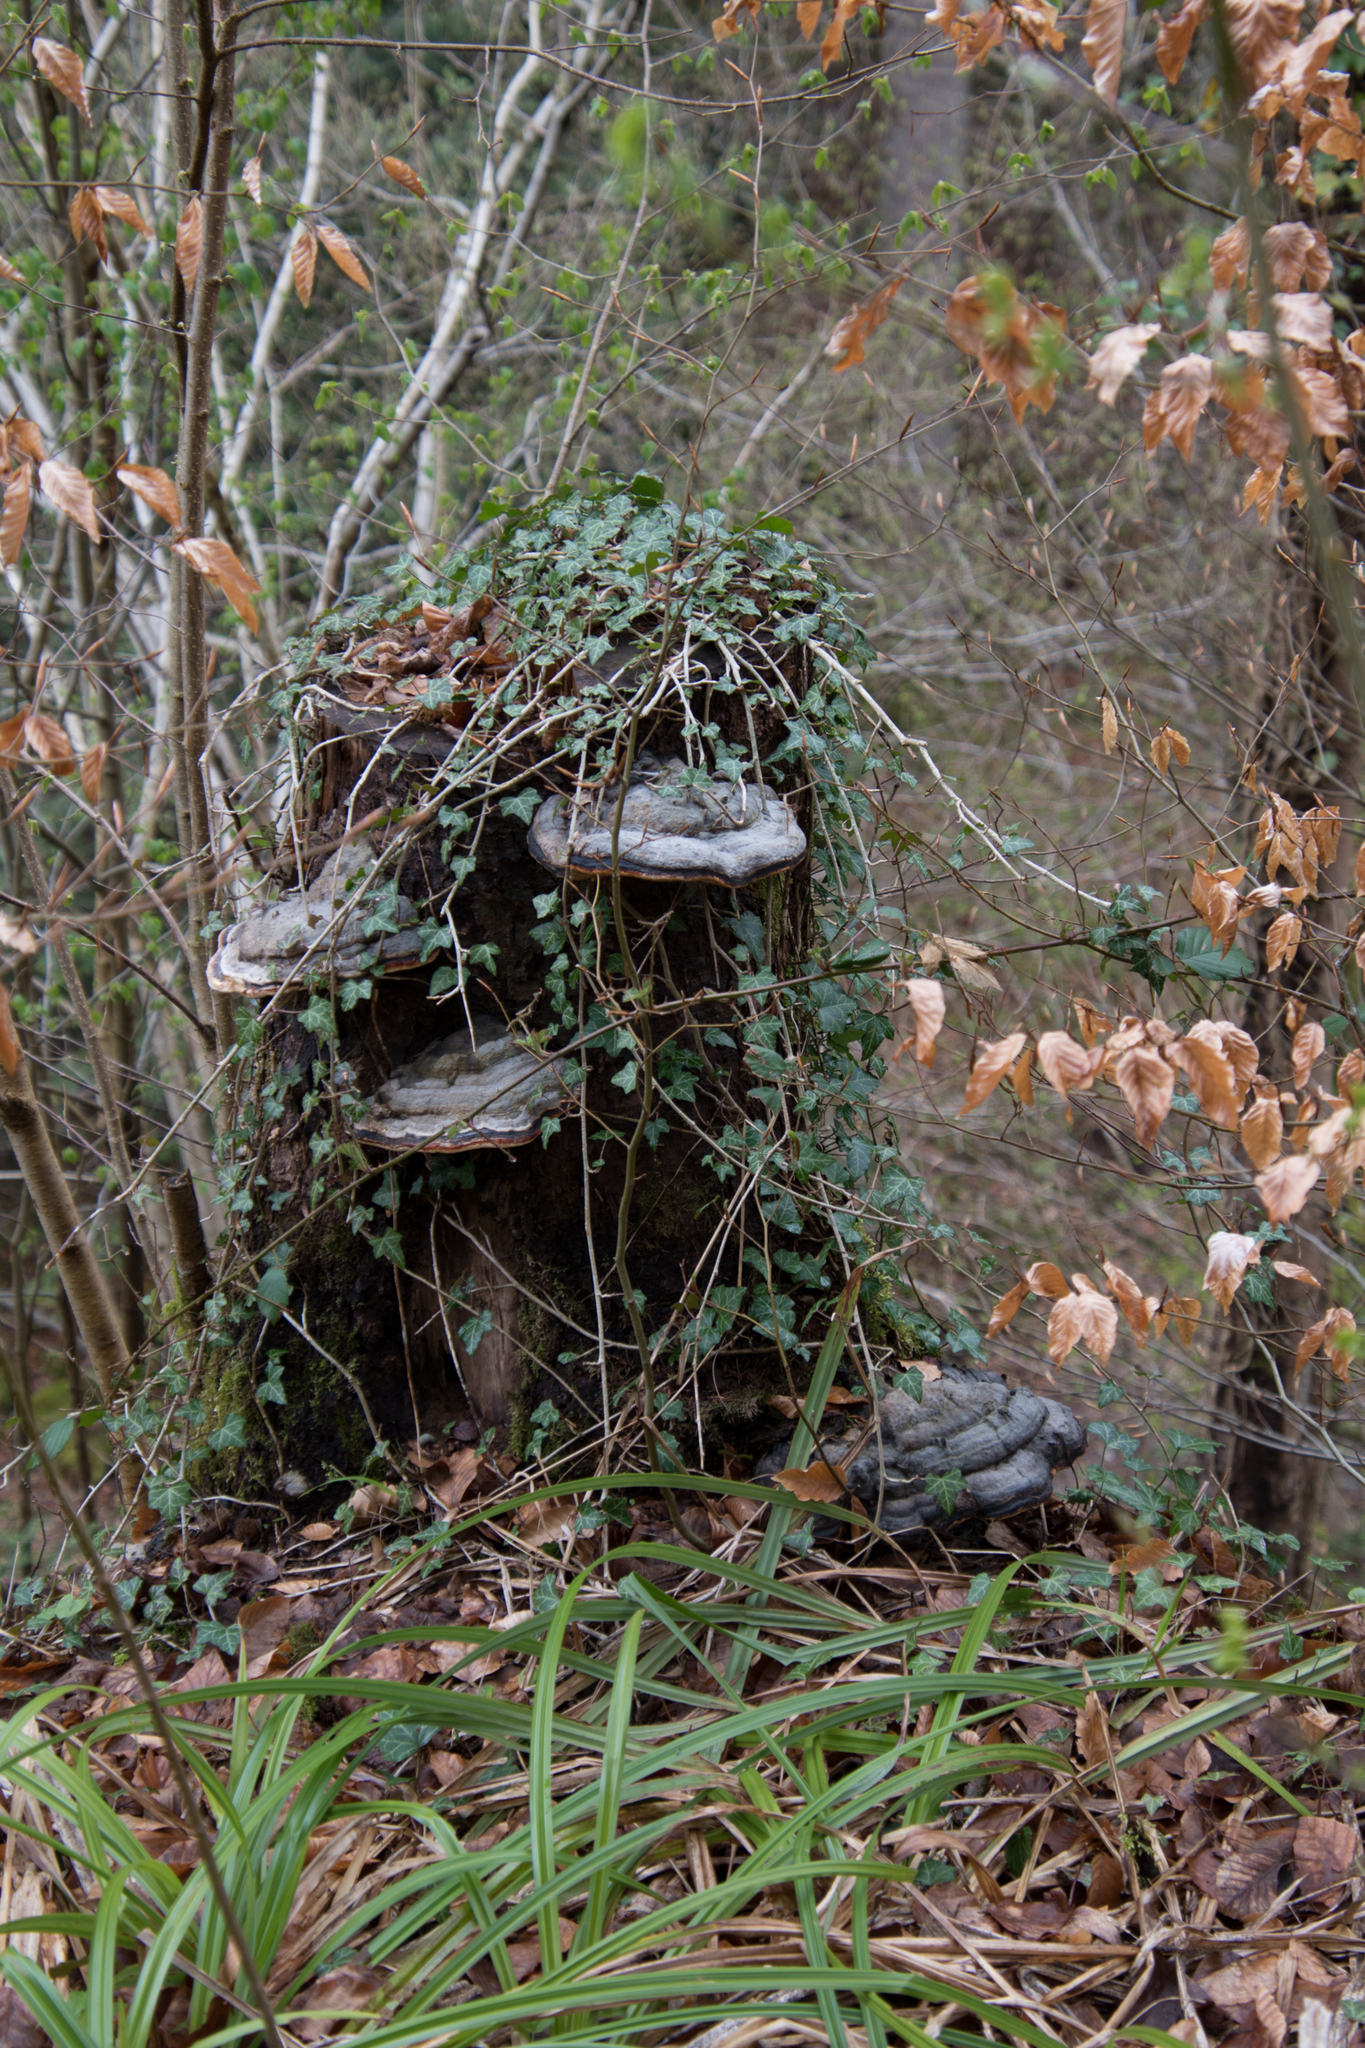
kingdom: Fungi
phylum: Basidiomycota
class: Agaricomycetes
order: Polyporales
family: Fomitopsidaceae
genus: Fomitopsis
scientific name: Fomitopsis pinicola
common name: Red-belted bracket
